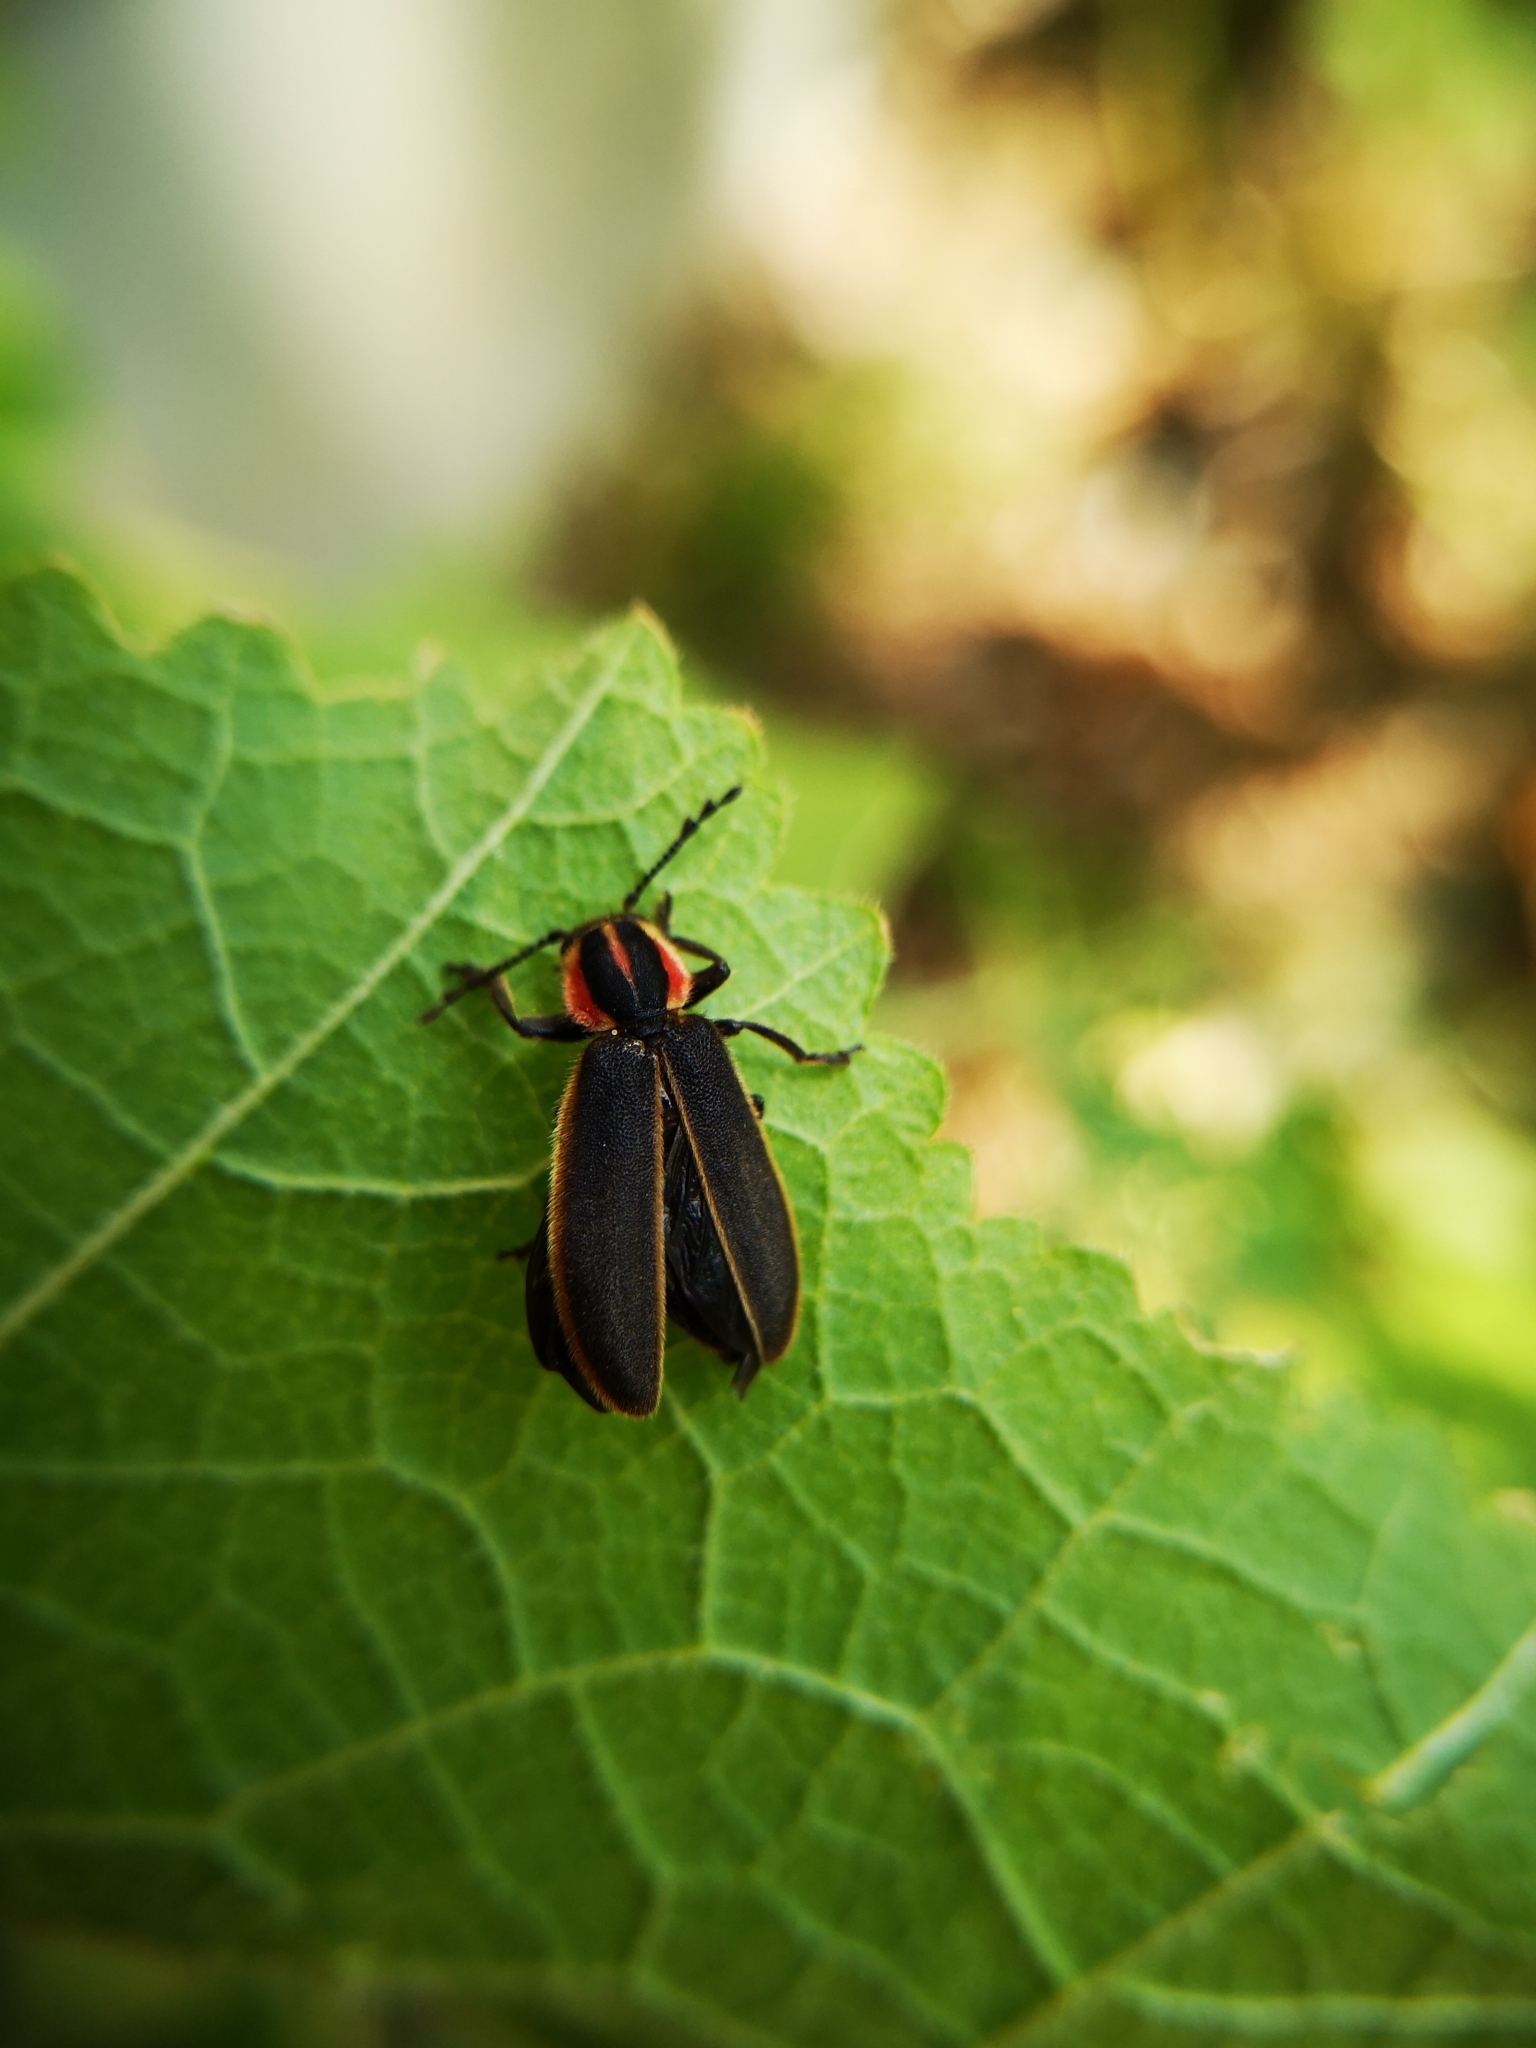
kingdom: Animalia
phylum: Arthropoda
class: Insecta
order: Coleoptera
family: Cleridae
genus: Chariessa
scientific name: Chariessa pilosa
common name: Pilose checkered beetle
